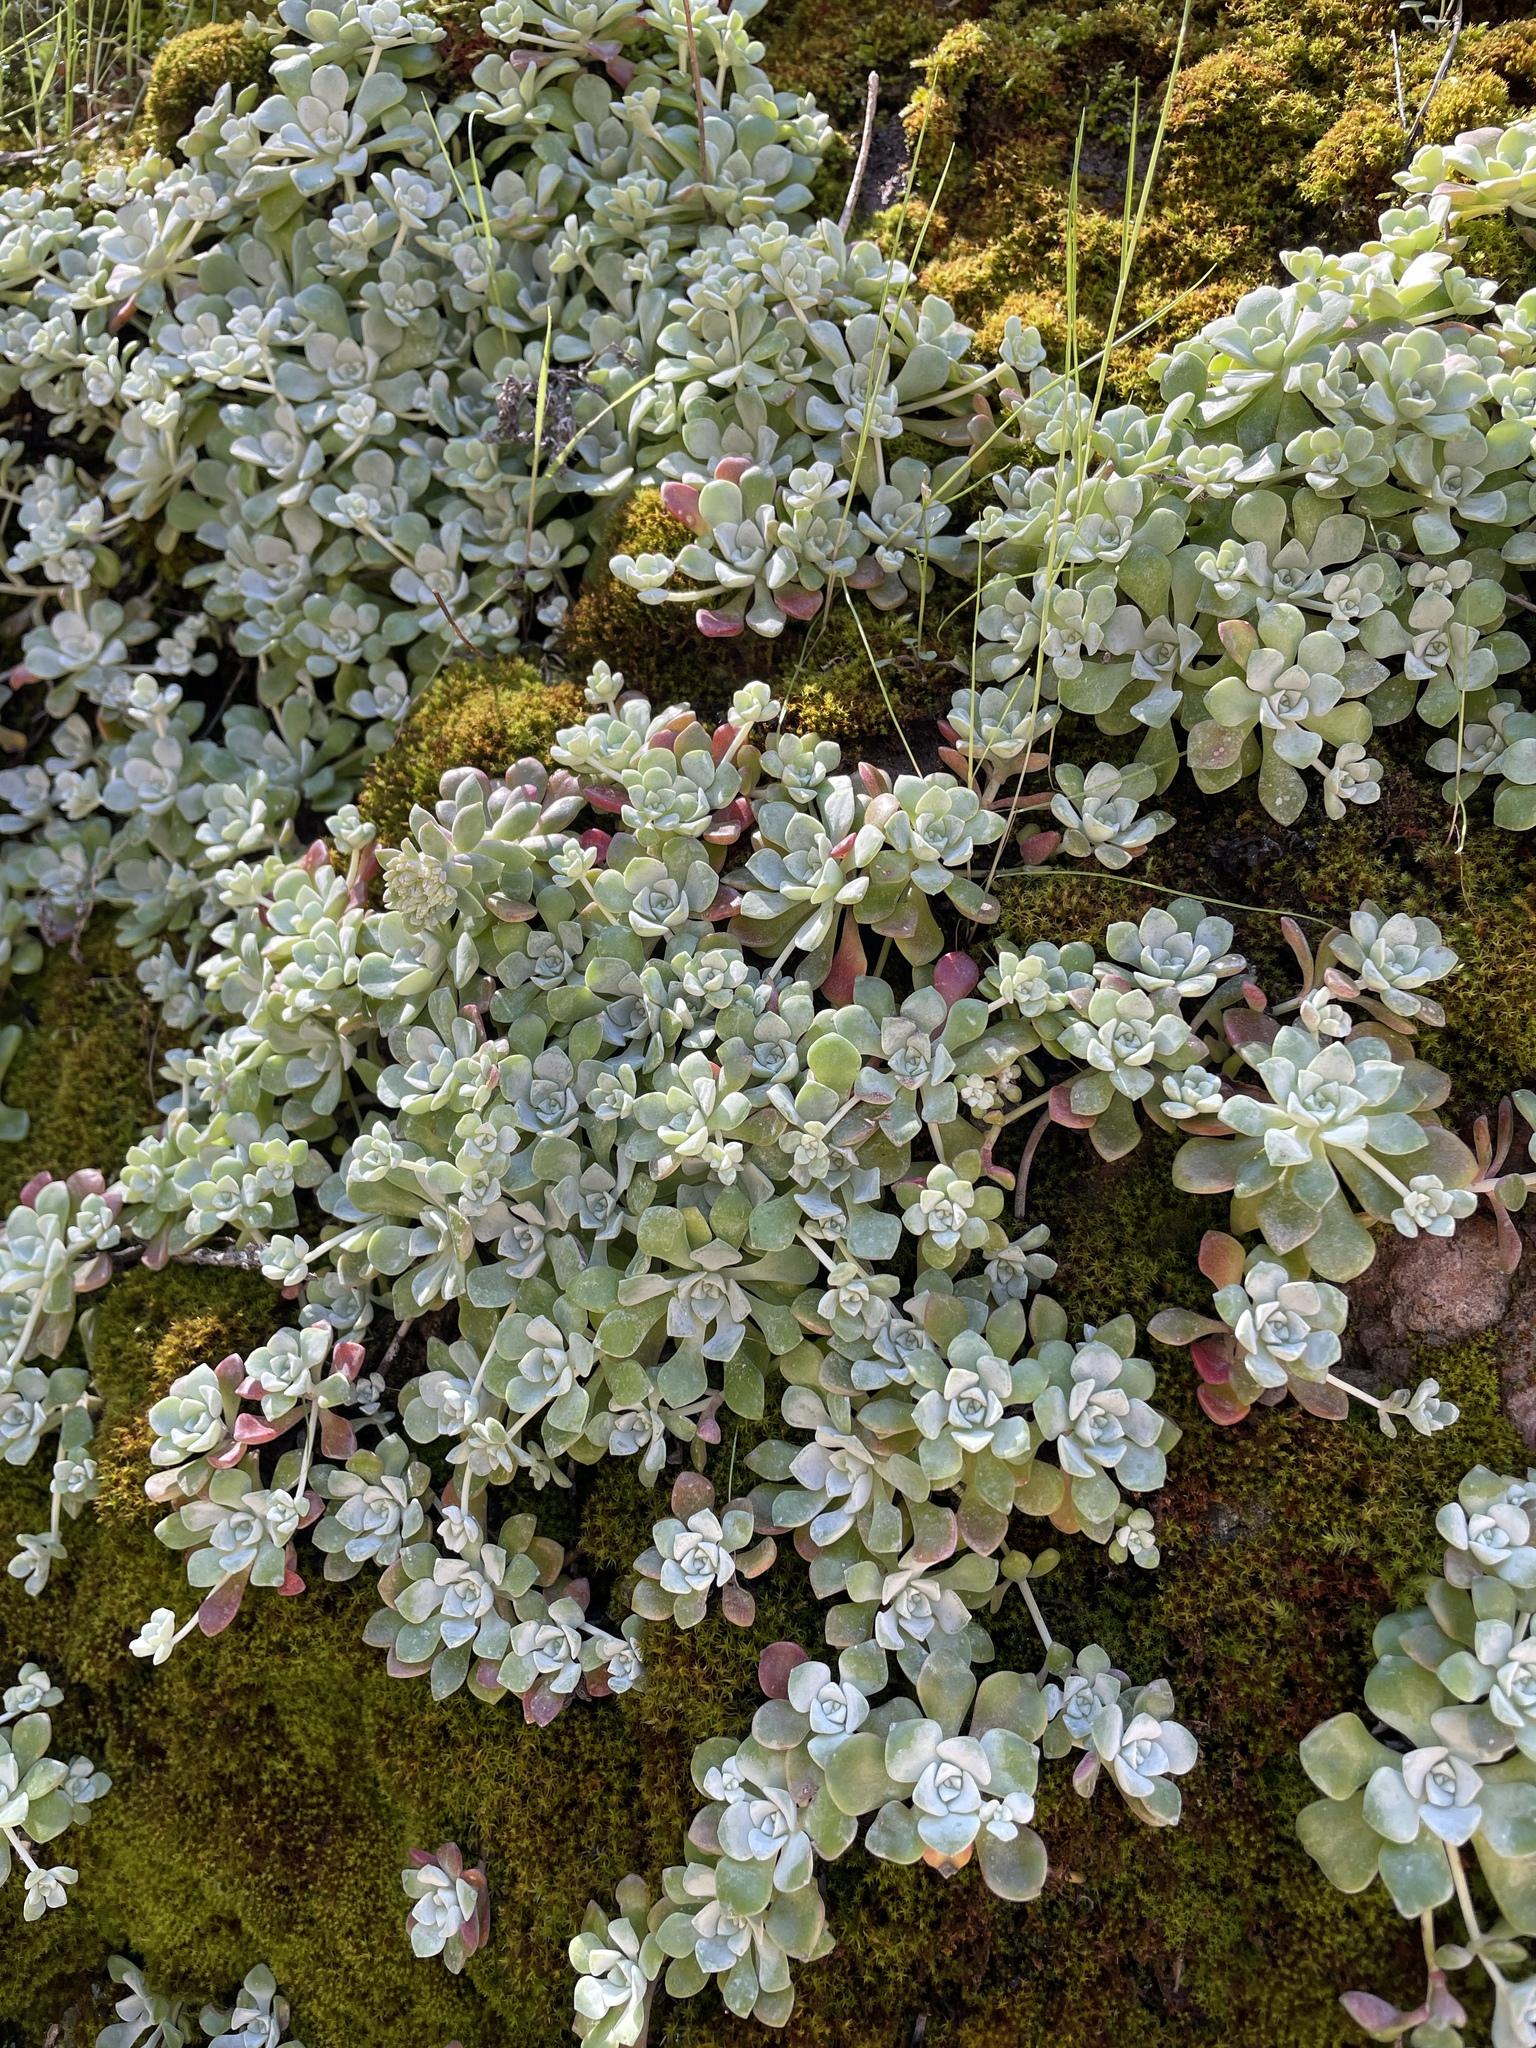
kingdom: Plantae
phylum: Tracheophyta
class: Magnoliopsida
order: Saxifragales
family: Crassulaceae
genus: Sedum
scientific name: Sedum spathulifolium
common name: Colorado stonecrop
